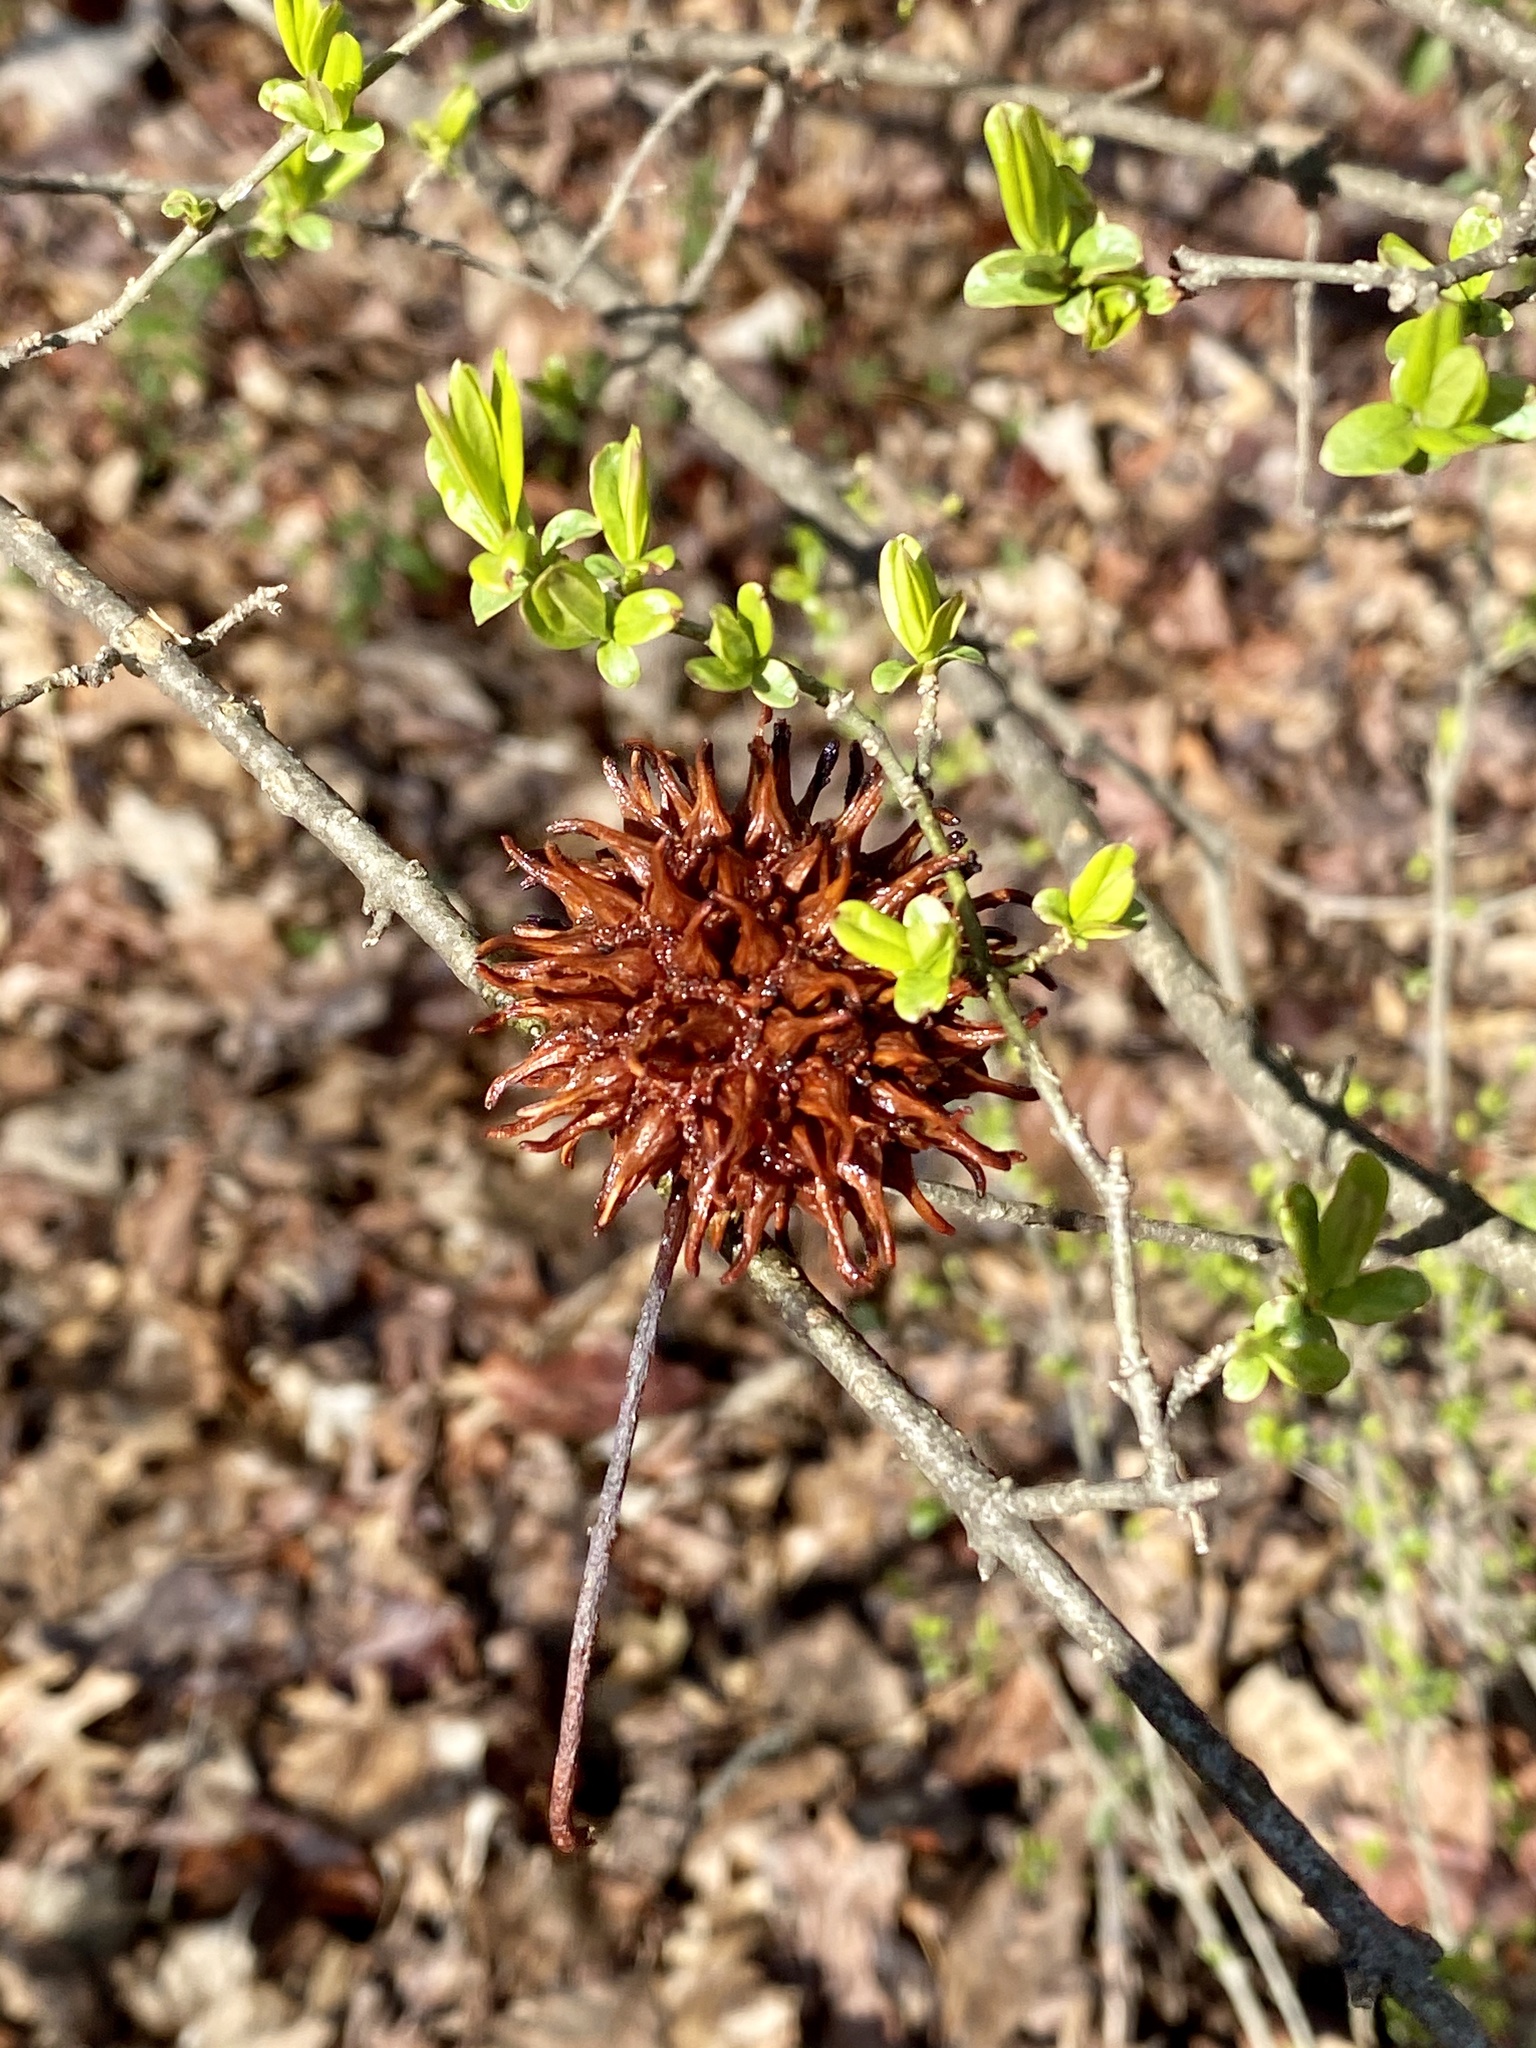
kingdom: Plantae
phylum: Tracheophyta
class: Magnoliopsida
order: Saxifragales
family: Altingiaceae
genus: Liquidambar
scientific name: Liquidambar styraciflua
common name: Sweet gum
